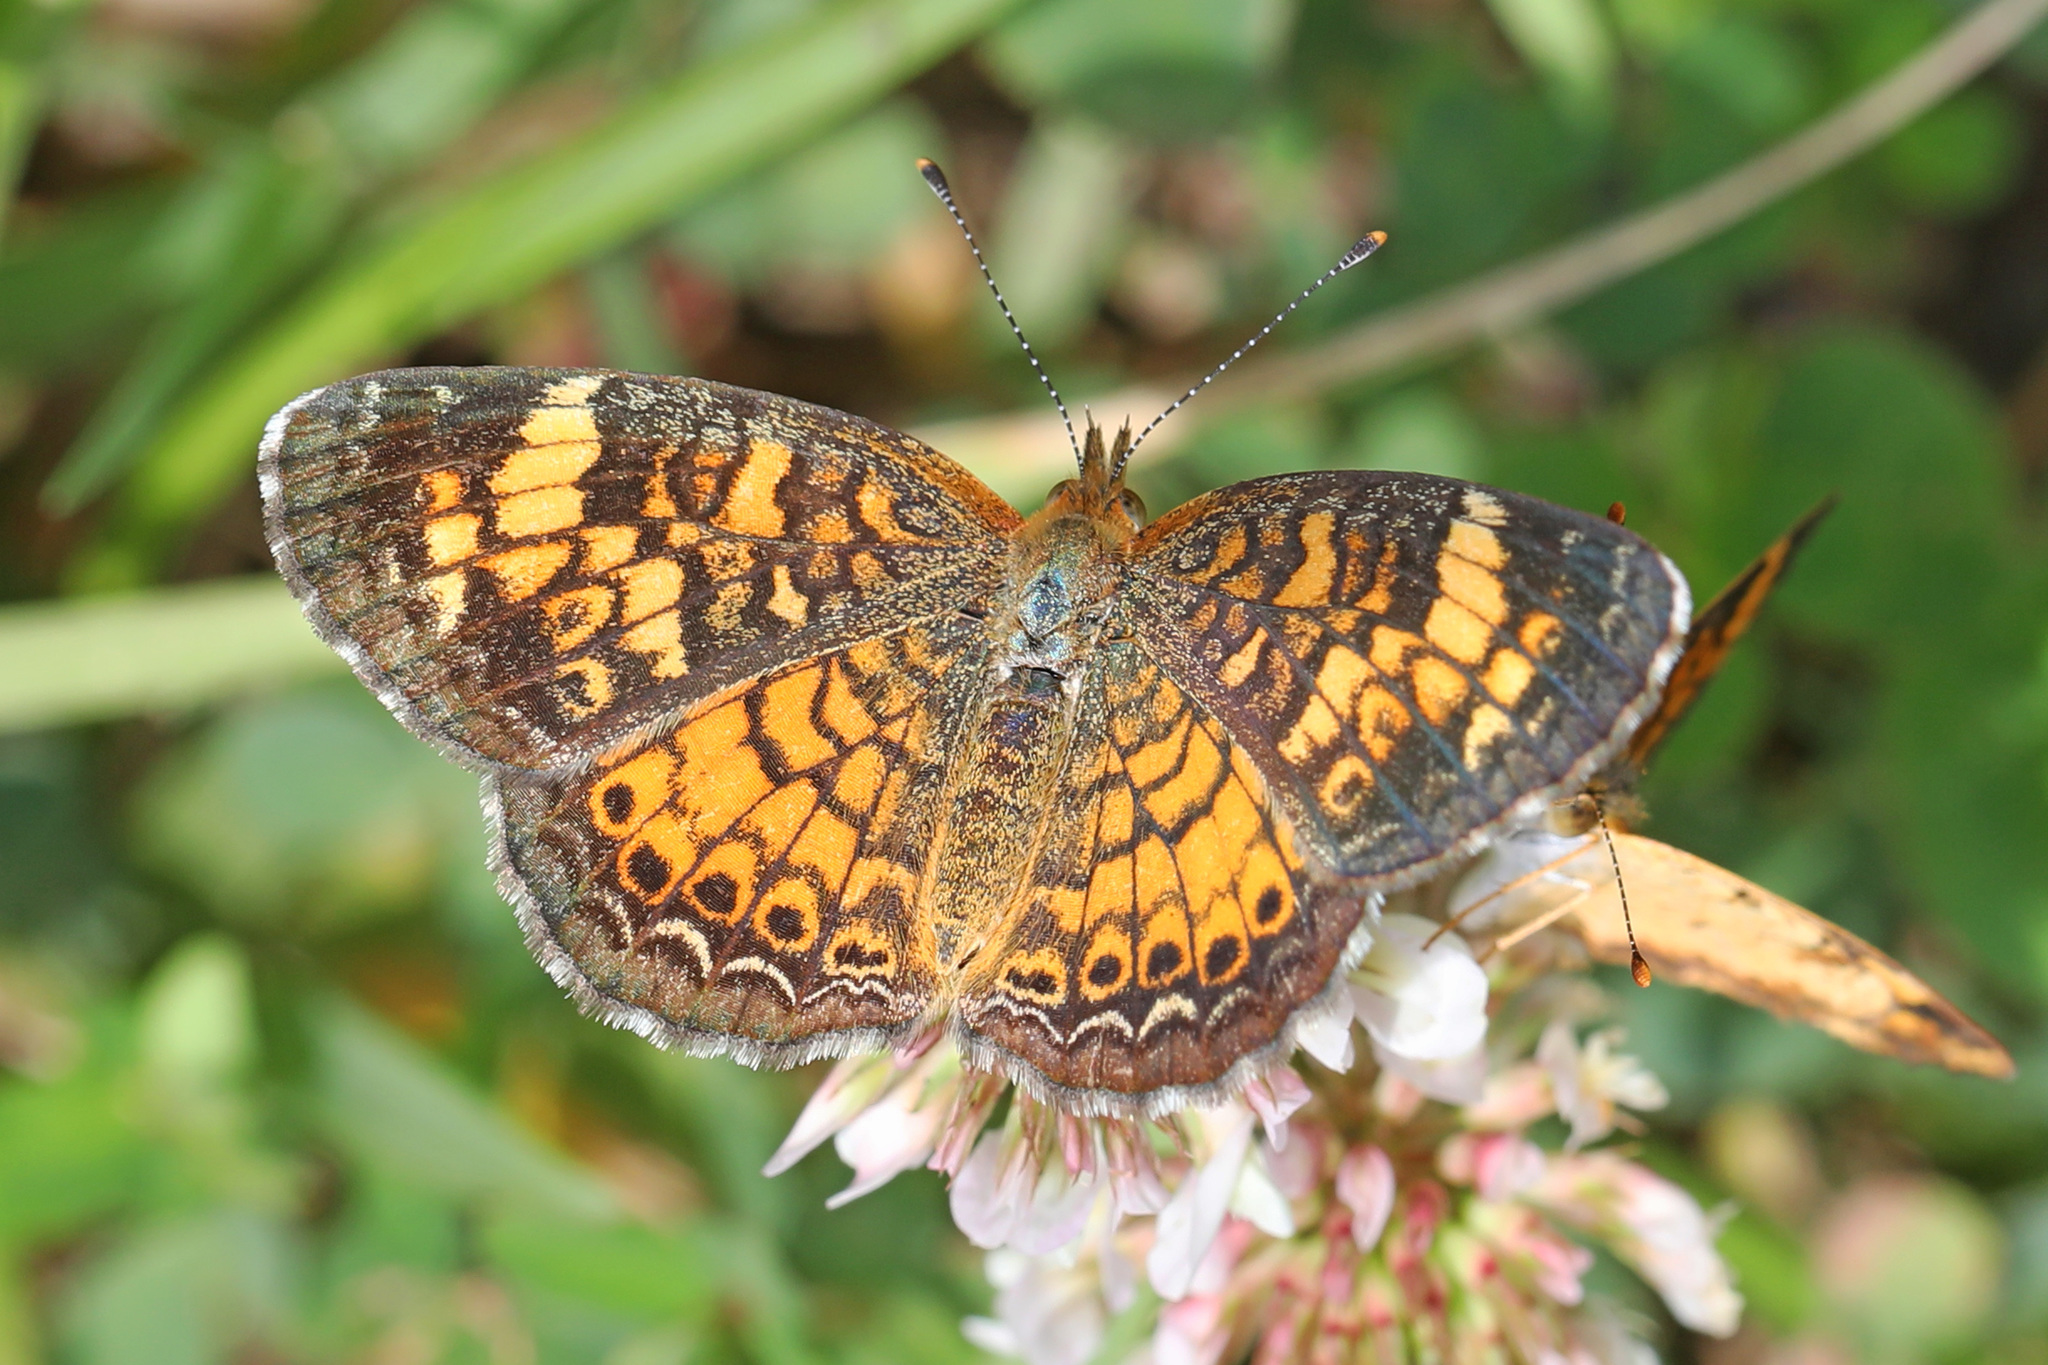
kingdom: Animalia
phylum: Arthropoda
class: Insecta
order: Lepidoptera
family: Nymphalidae
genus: Phyciodes
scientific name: Phyciodes tharos
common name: Pearl crescent
